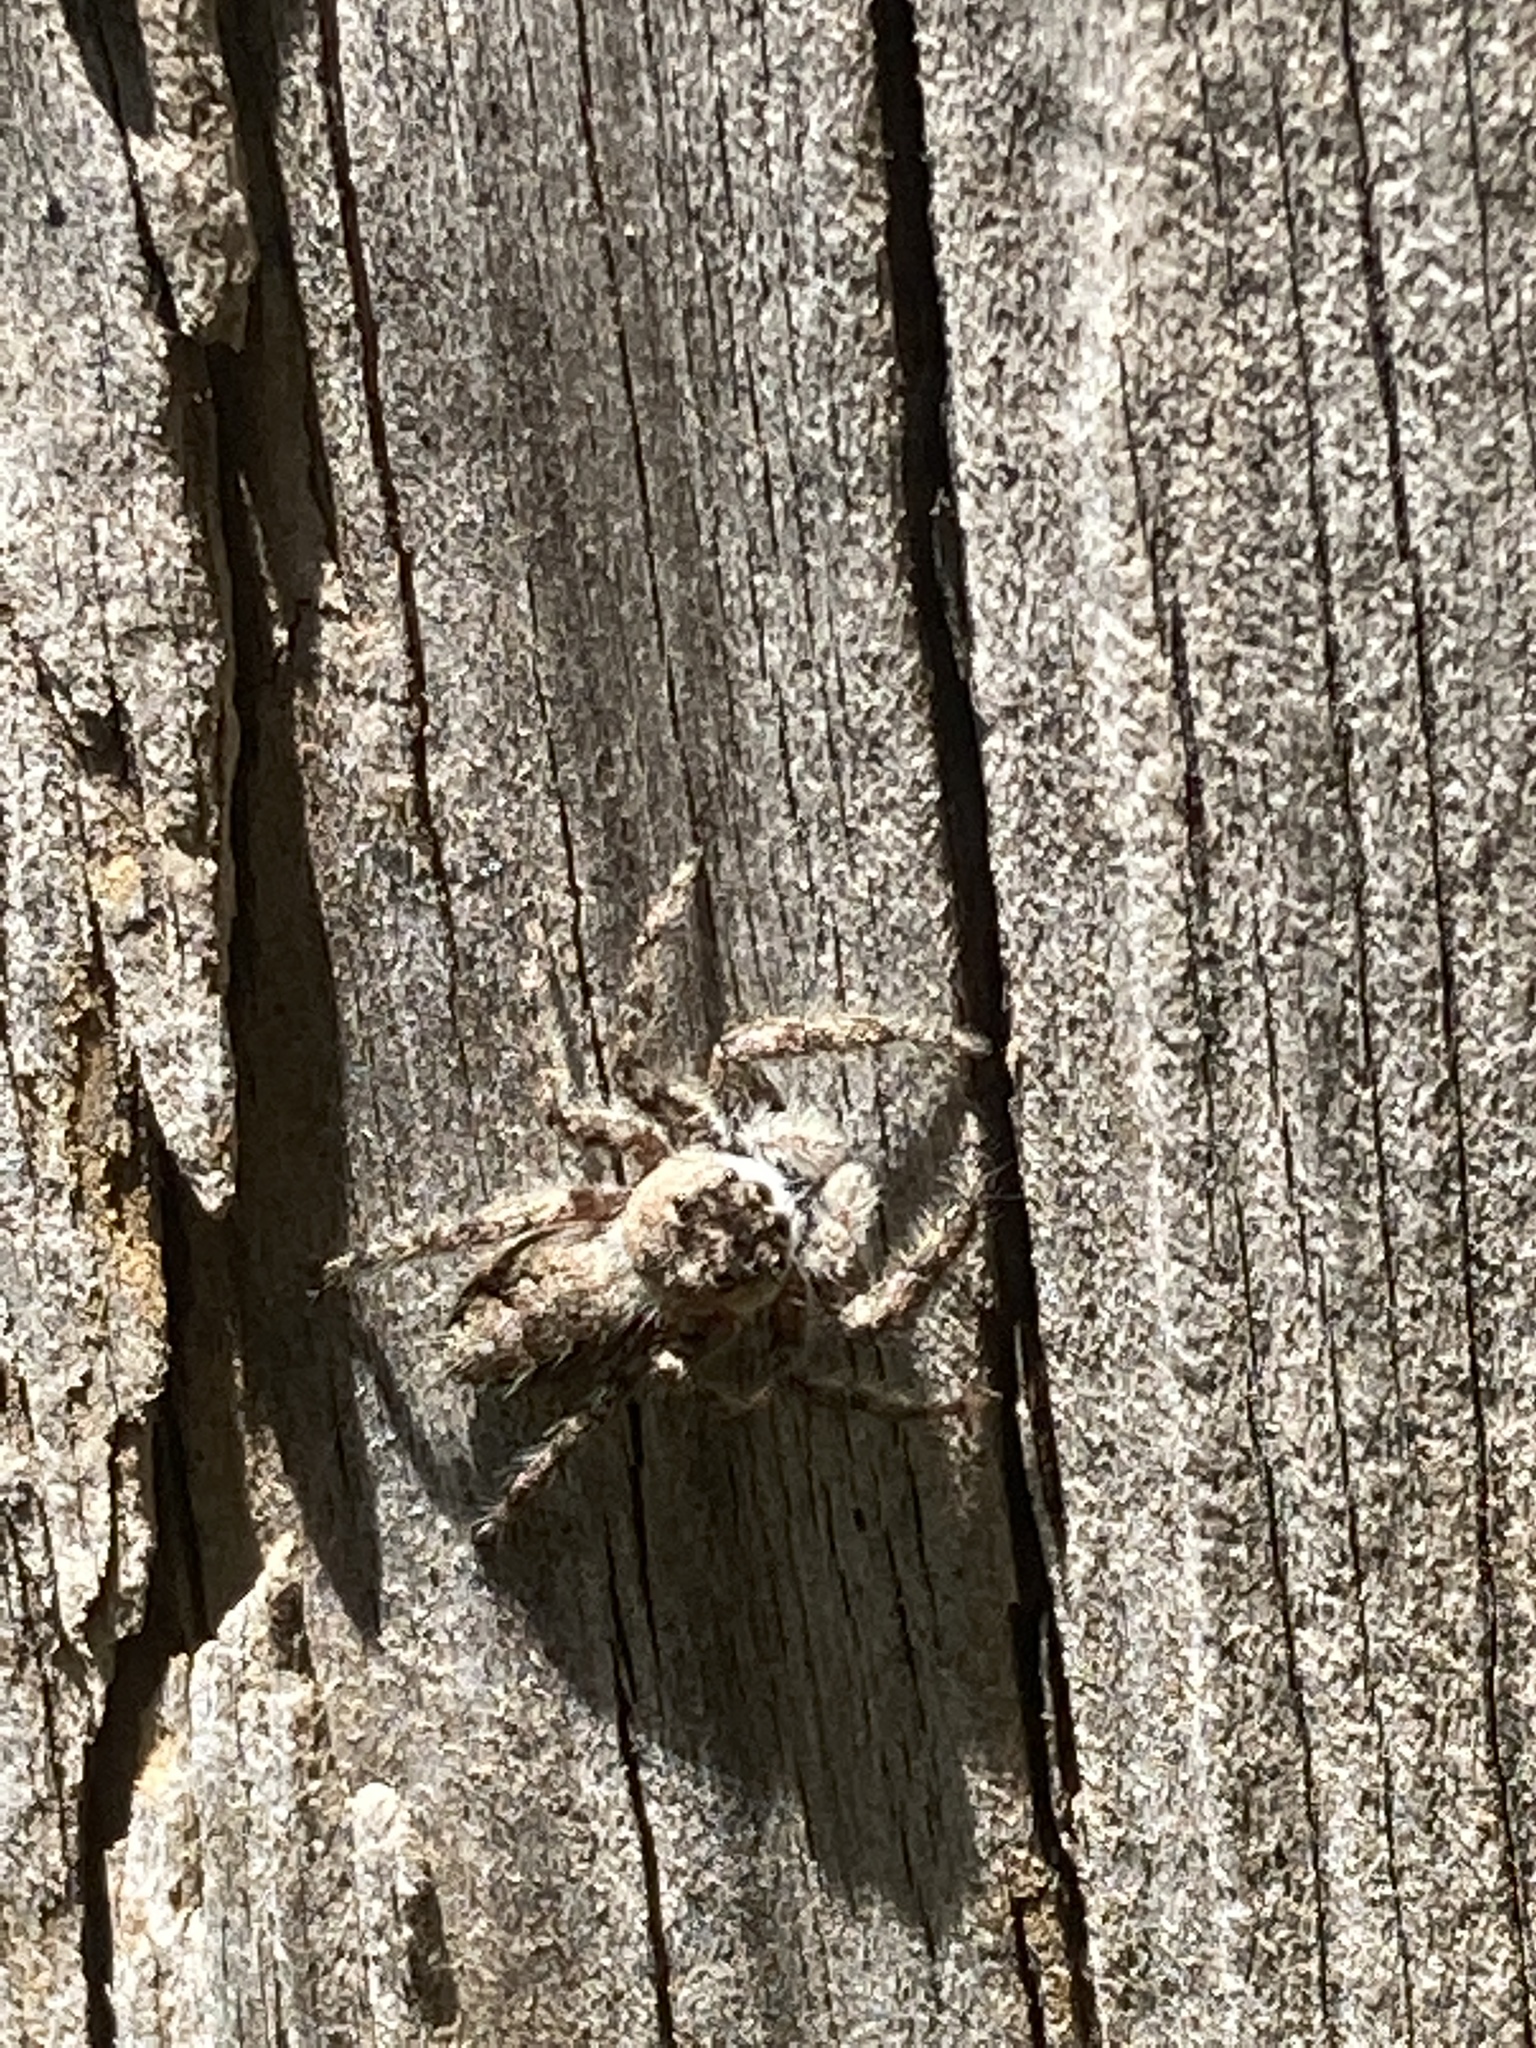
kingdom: Animalia
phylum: Arthropoda
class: Arachnida
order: Araneae
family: Salticidae
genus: Platycryptus
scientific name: Platycryptus undatus
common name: Tan jumping spider
